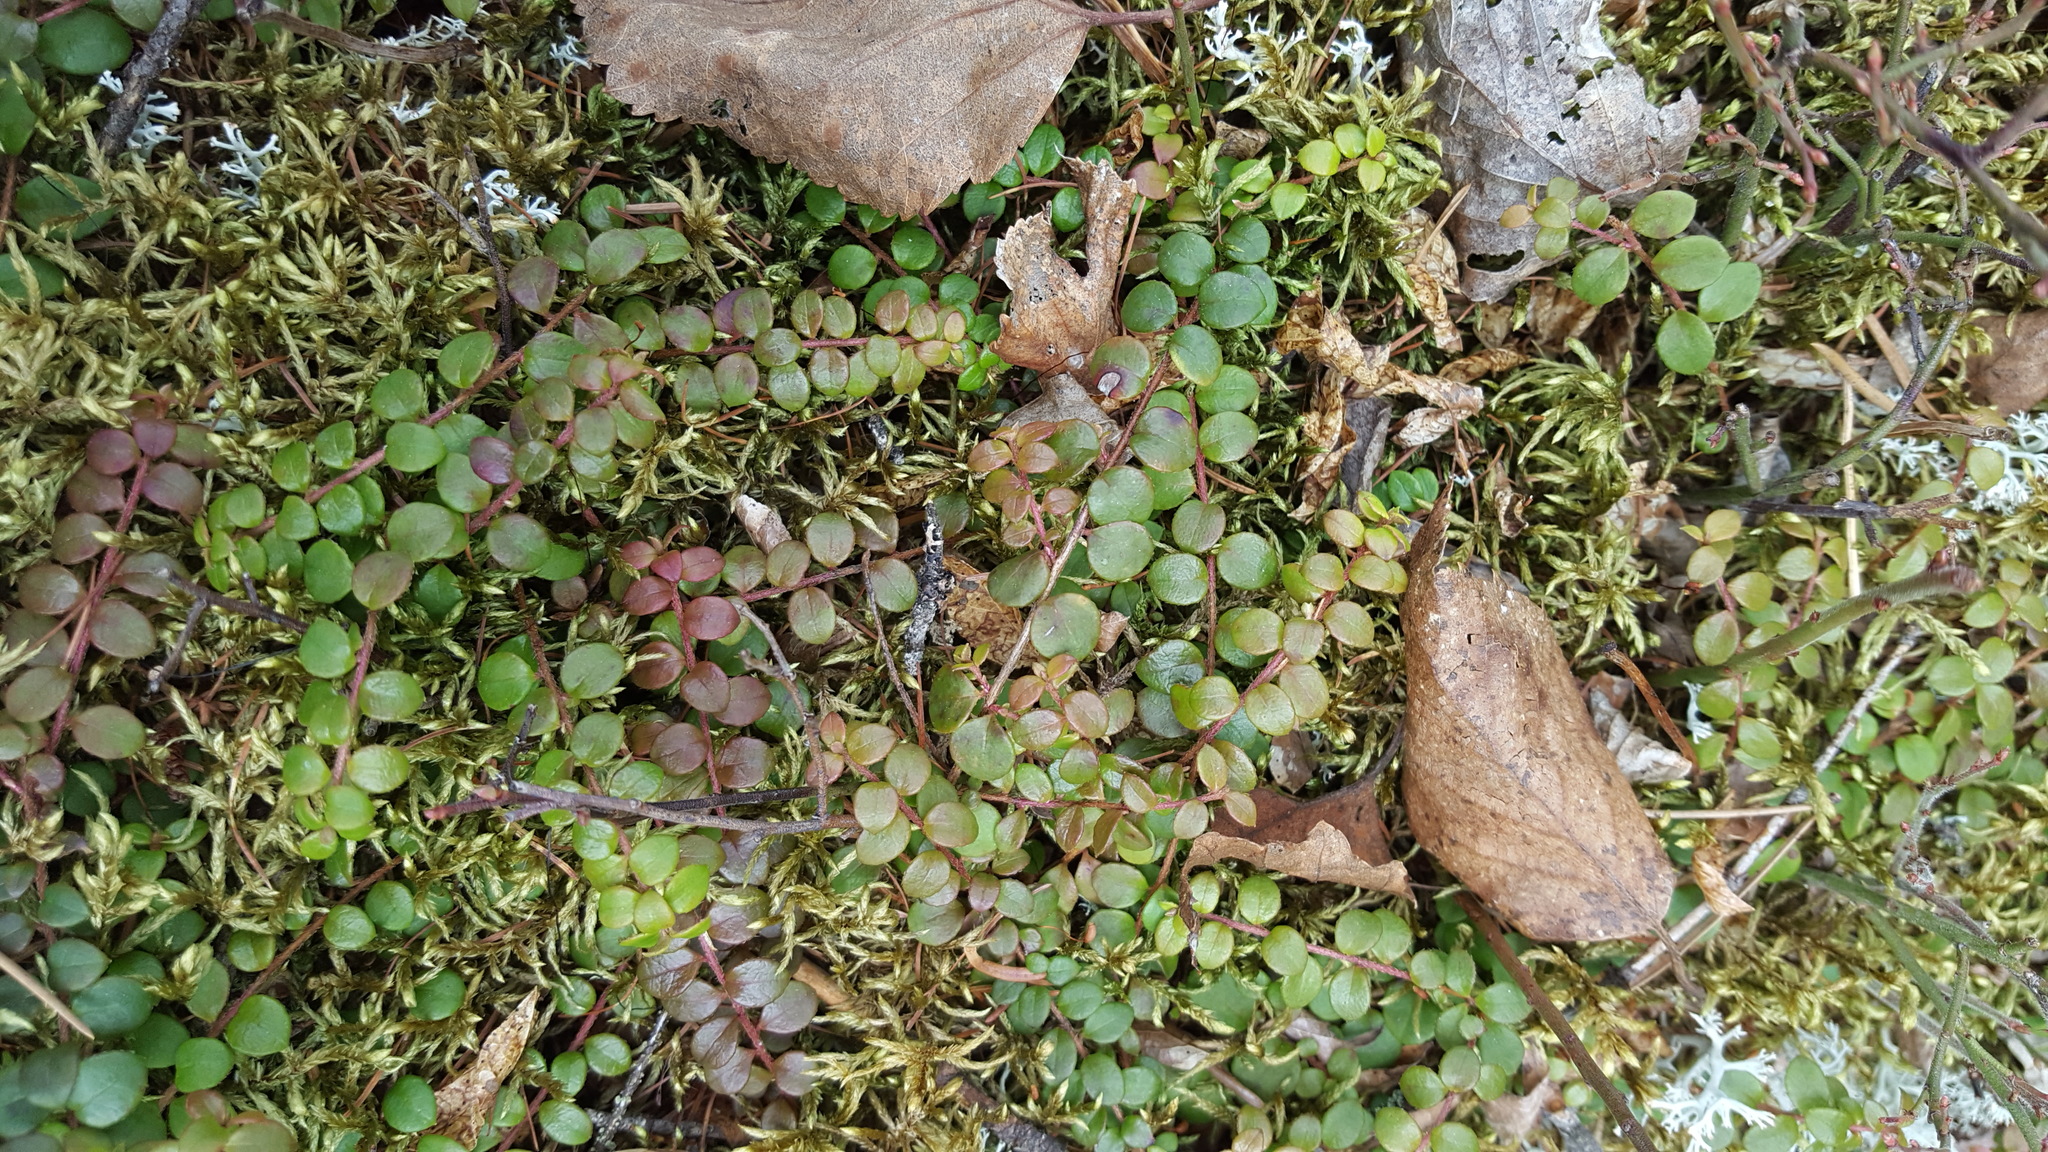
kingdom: Plantae
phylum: Tracheophyta
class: Magnoliopsida
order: Ericales
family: Ericaceae
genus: Gaultheria
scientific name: Gaultheria hispidula
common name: Cancer wintergreen
